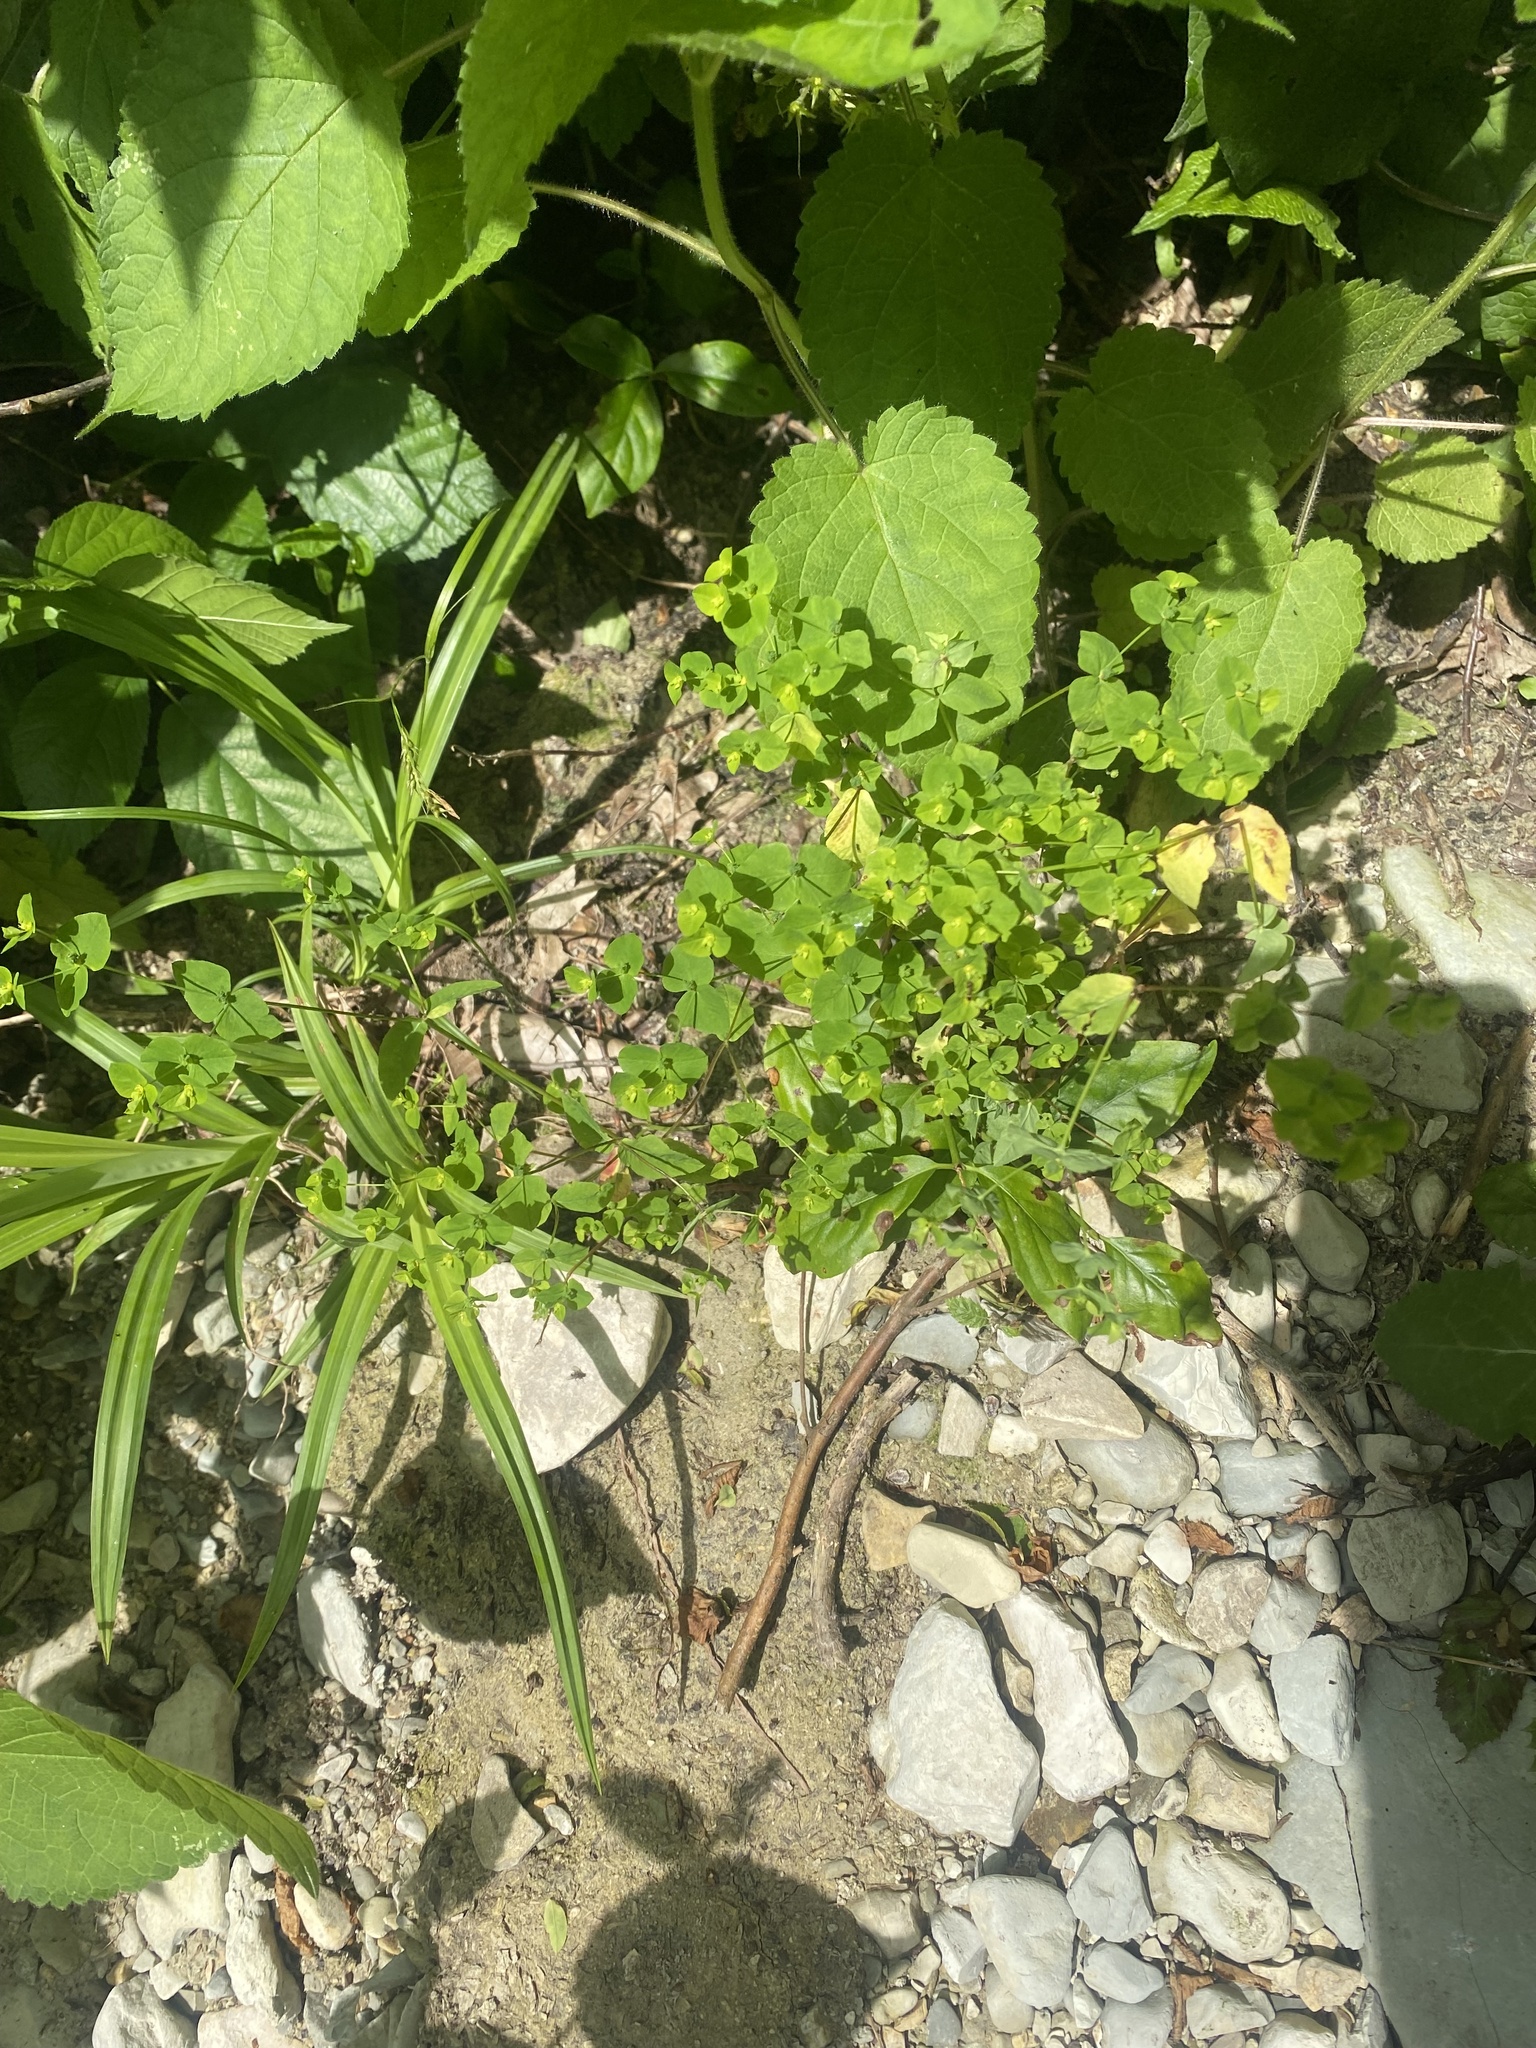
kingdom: Plantae
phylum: Tracheophyta
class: Magnoliopsida
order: Malpighiales
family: Euphorbiaceae
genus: Euphorbia
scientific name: Euphorbia stricta
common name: Upright spurge
